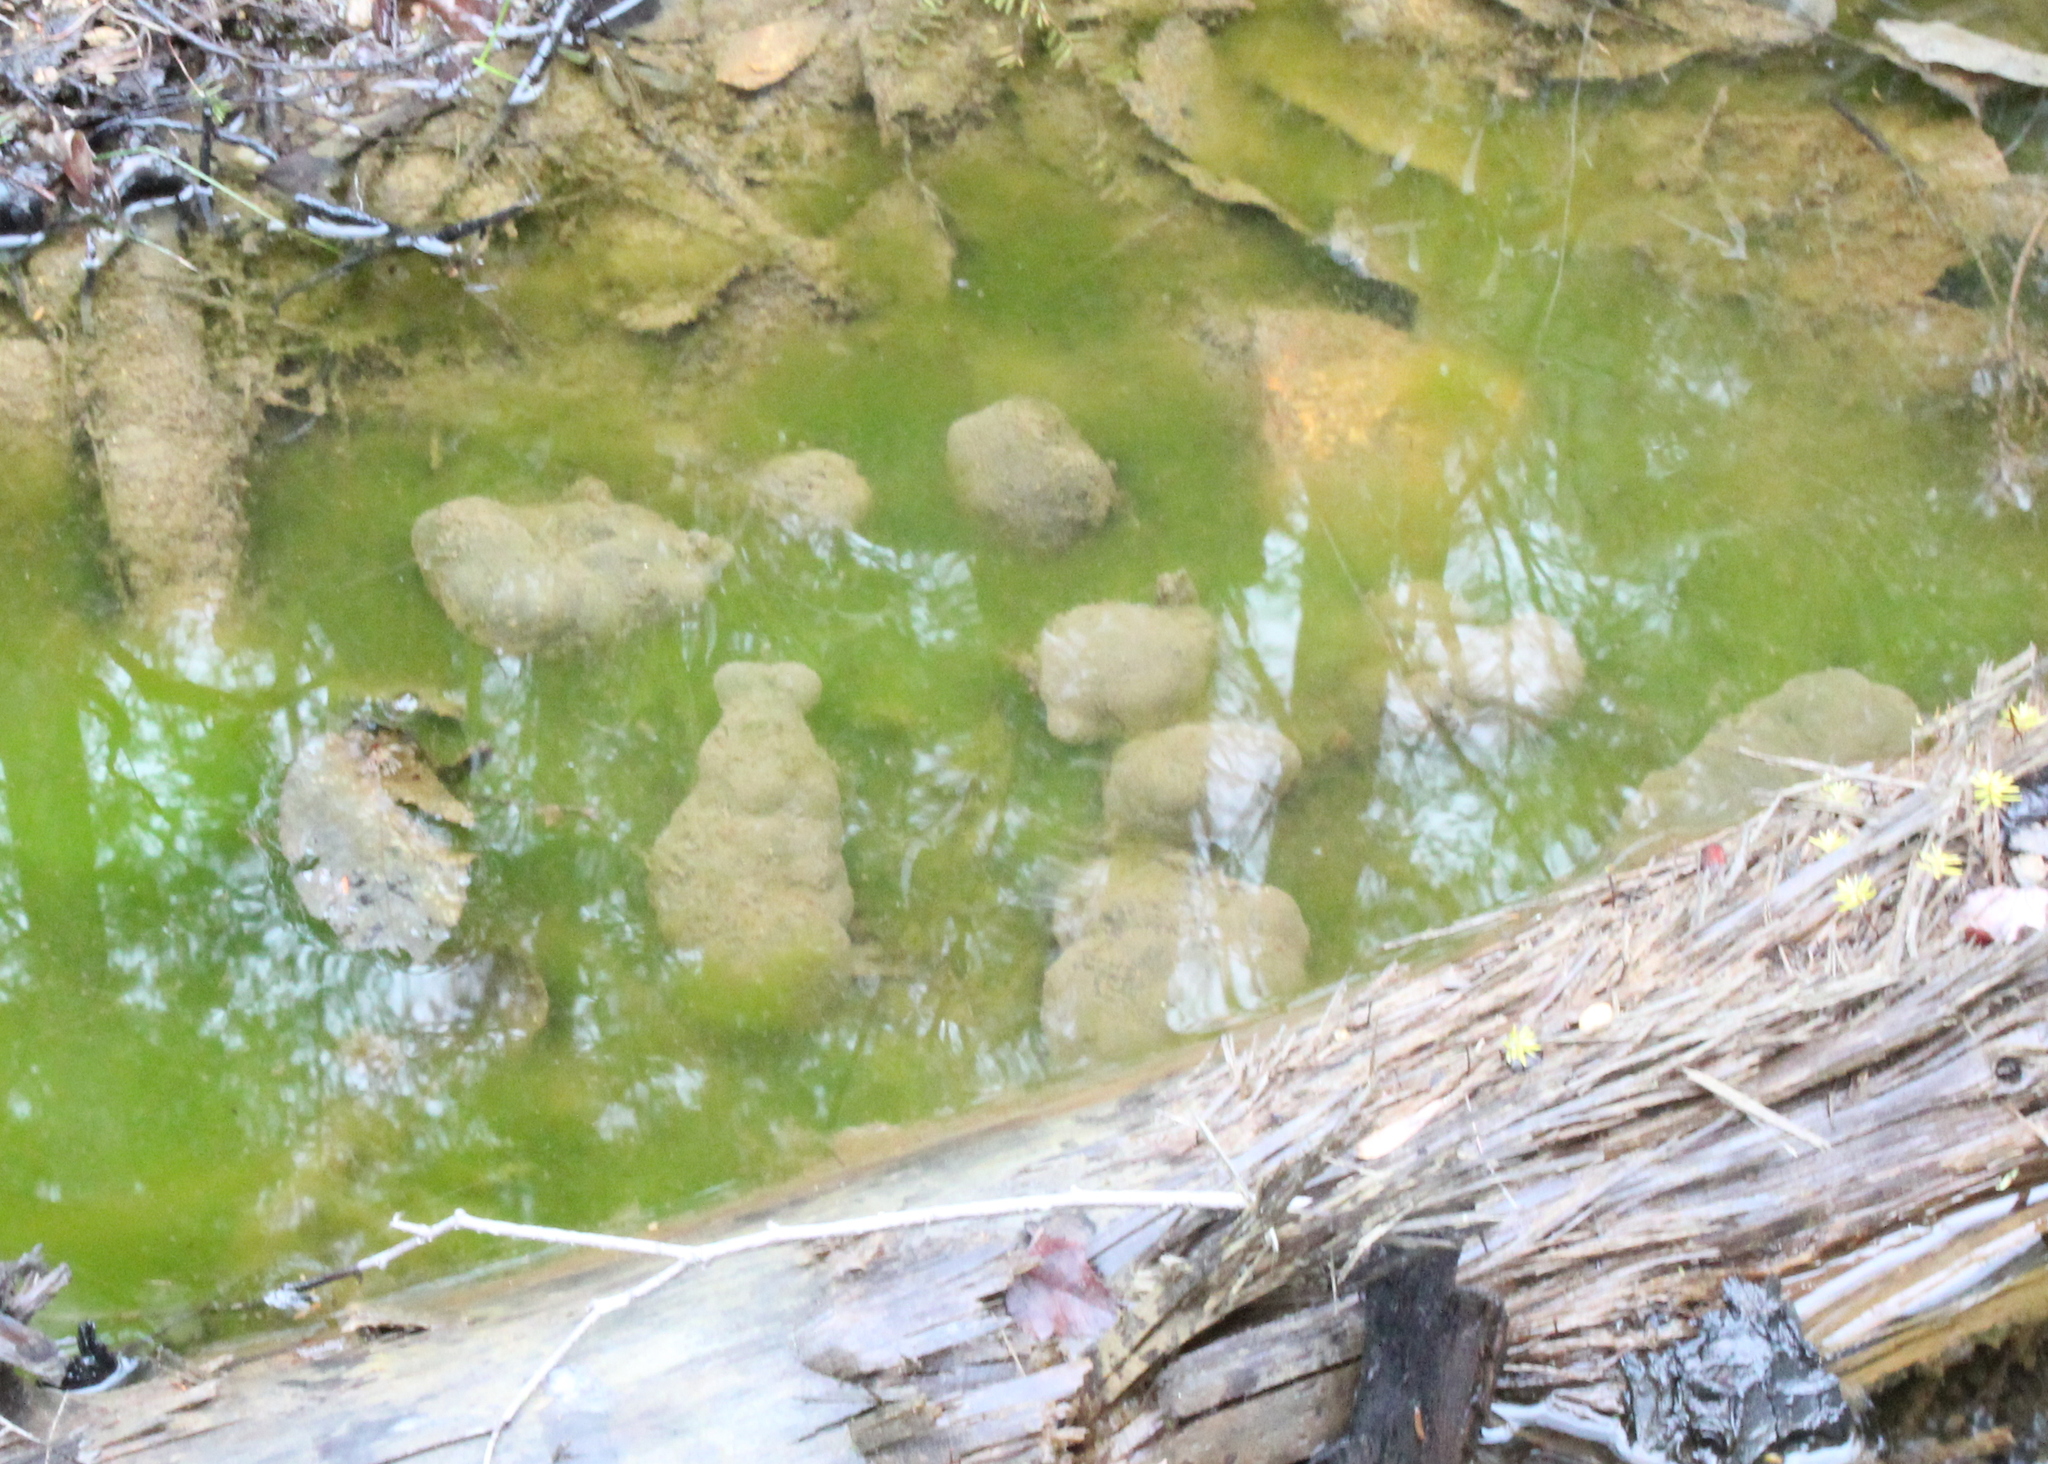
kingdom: Animalia
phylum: Chordata
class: Amphibia
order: Caudata
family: Ambystomatidae
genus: Ambystoma
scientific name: Ambystoma maculatum
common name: Spotted salamander
